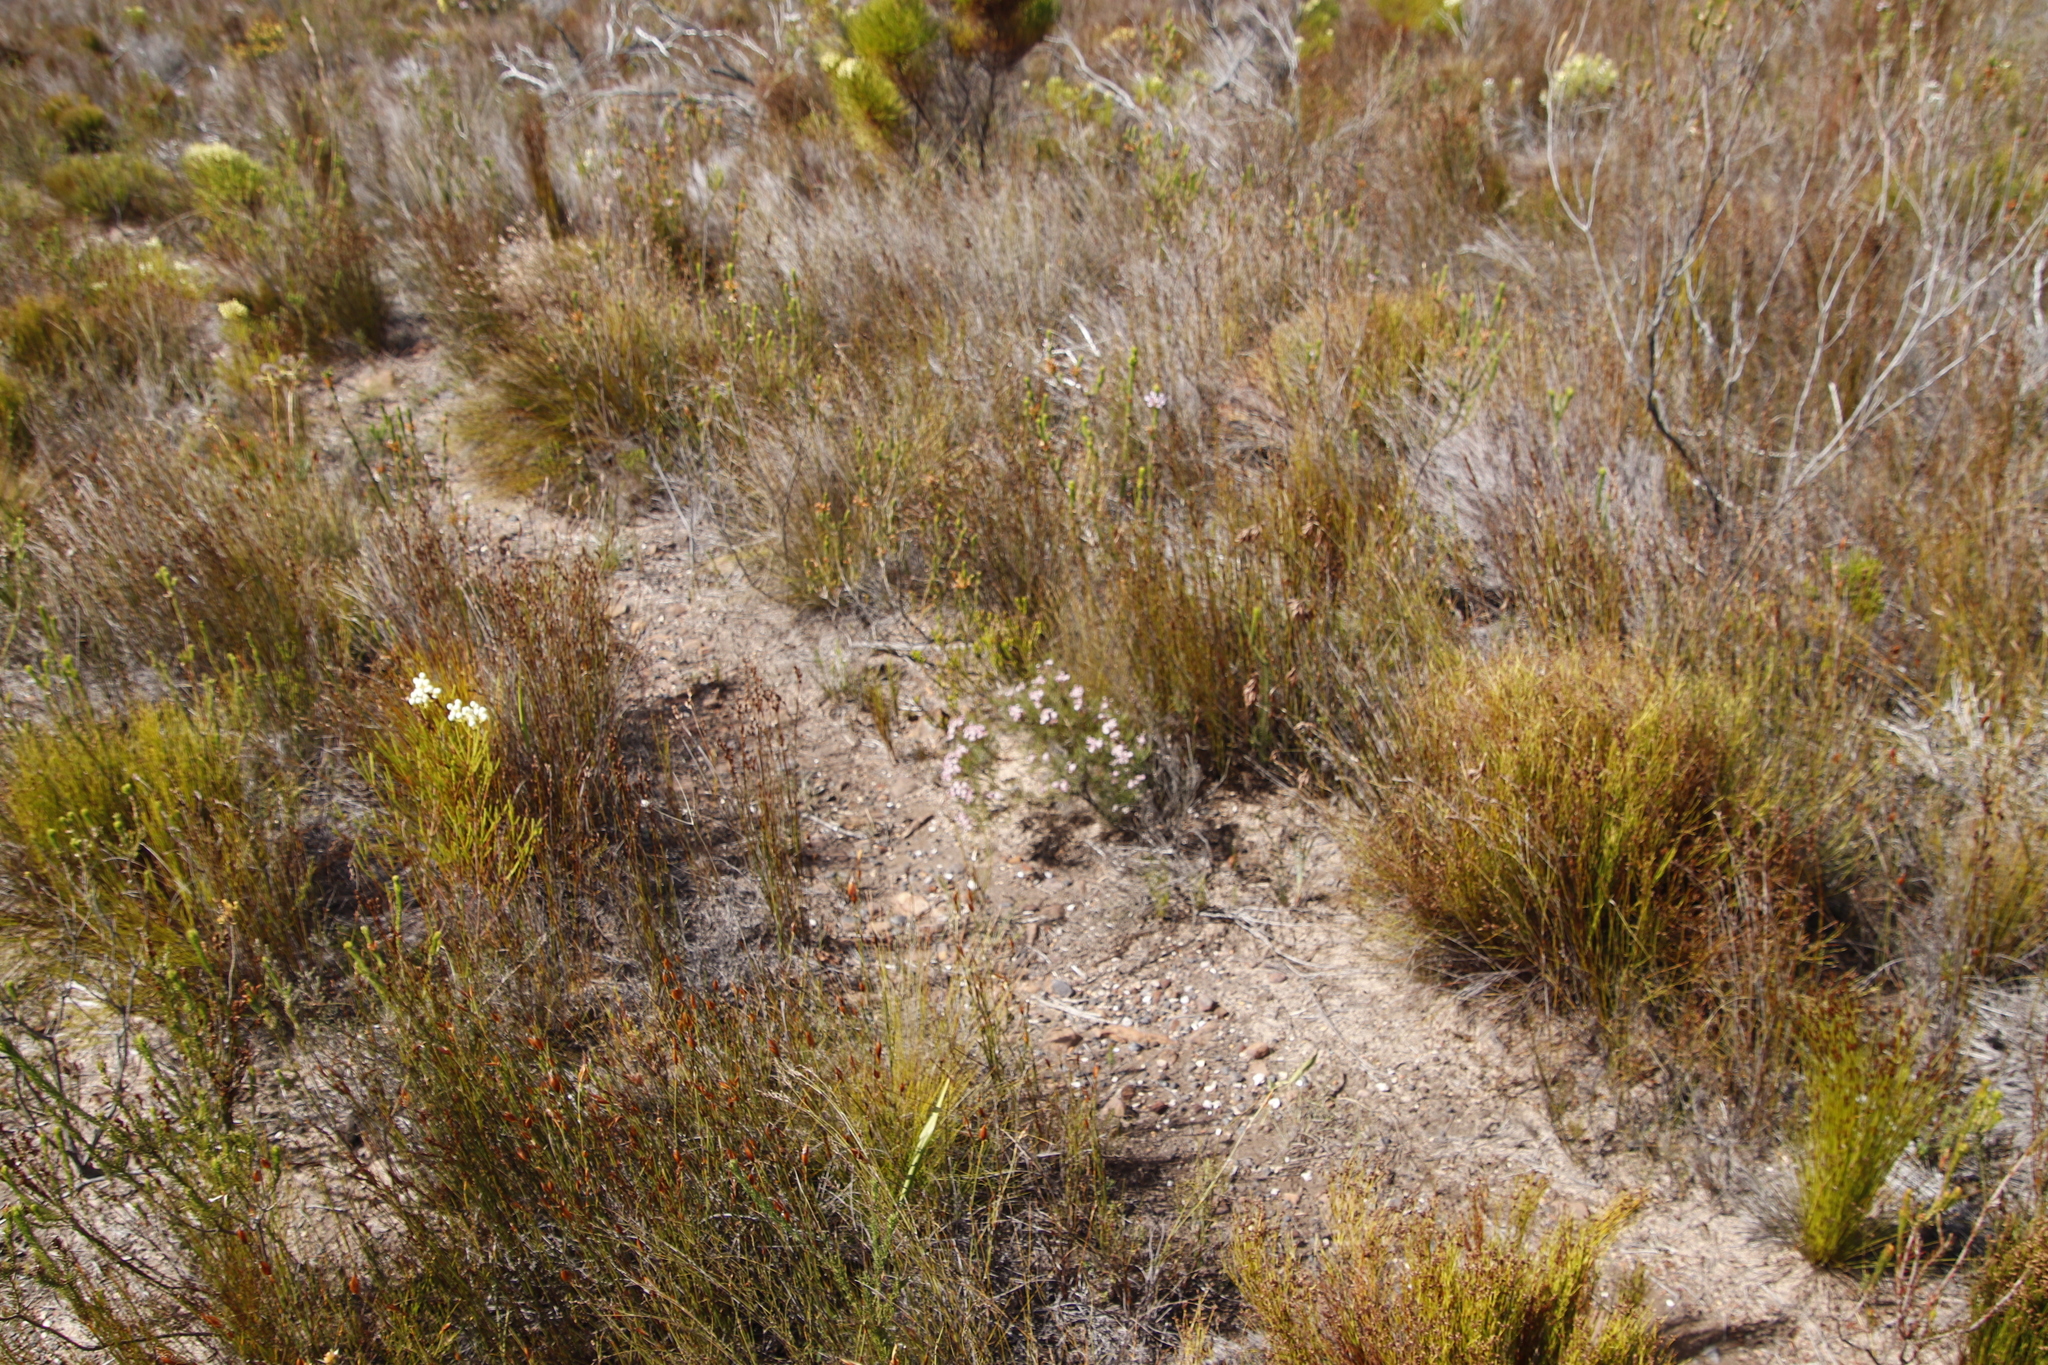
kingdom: Plantae
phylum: Tracheophyta
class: Magnoliopsida
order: Proteales
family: Proteaceae
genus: Serruria
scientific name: Serruria fasciflora
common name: Common pin spiderhead
